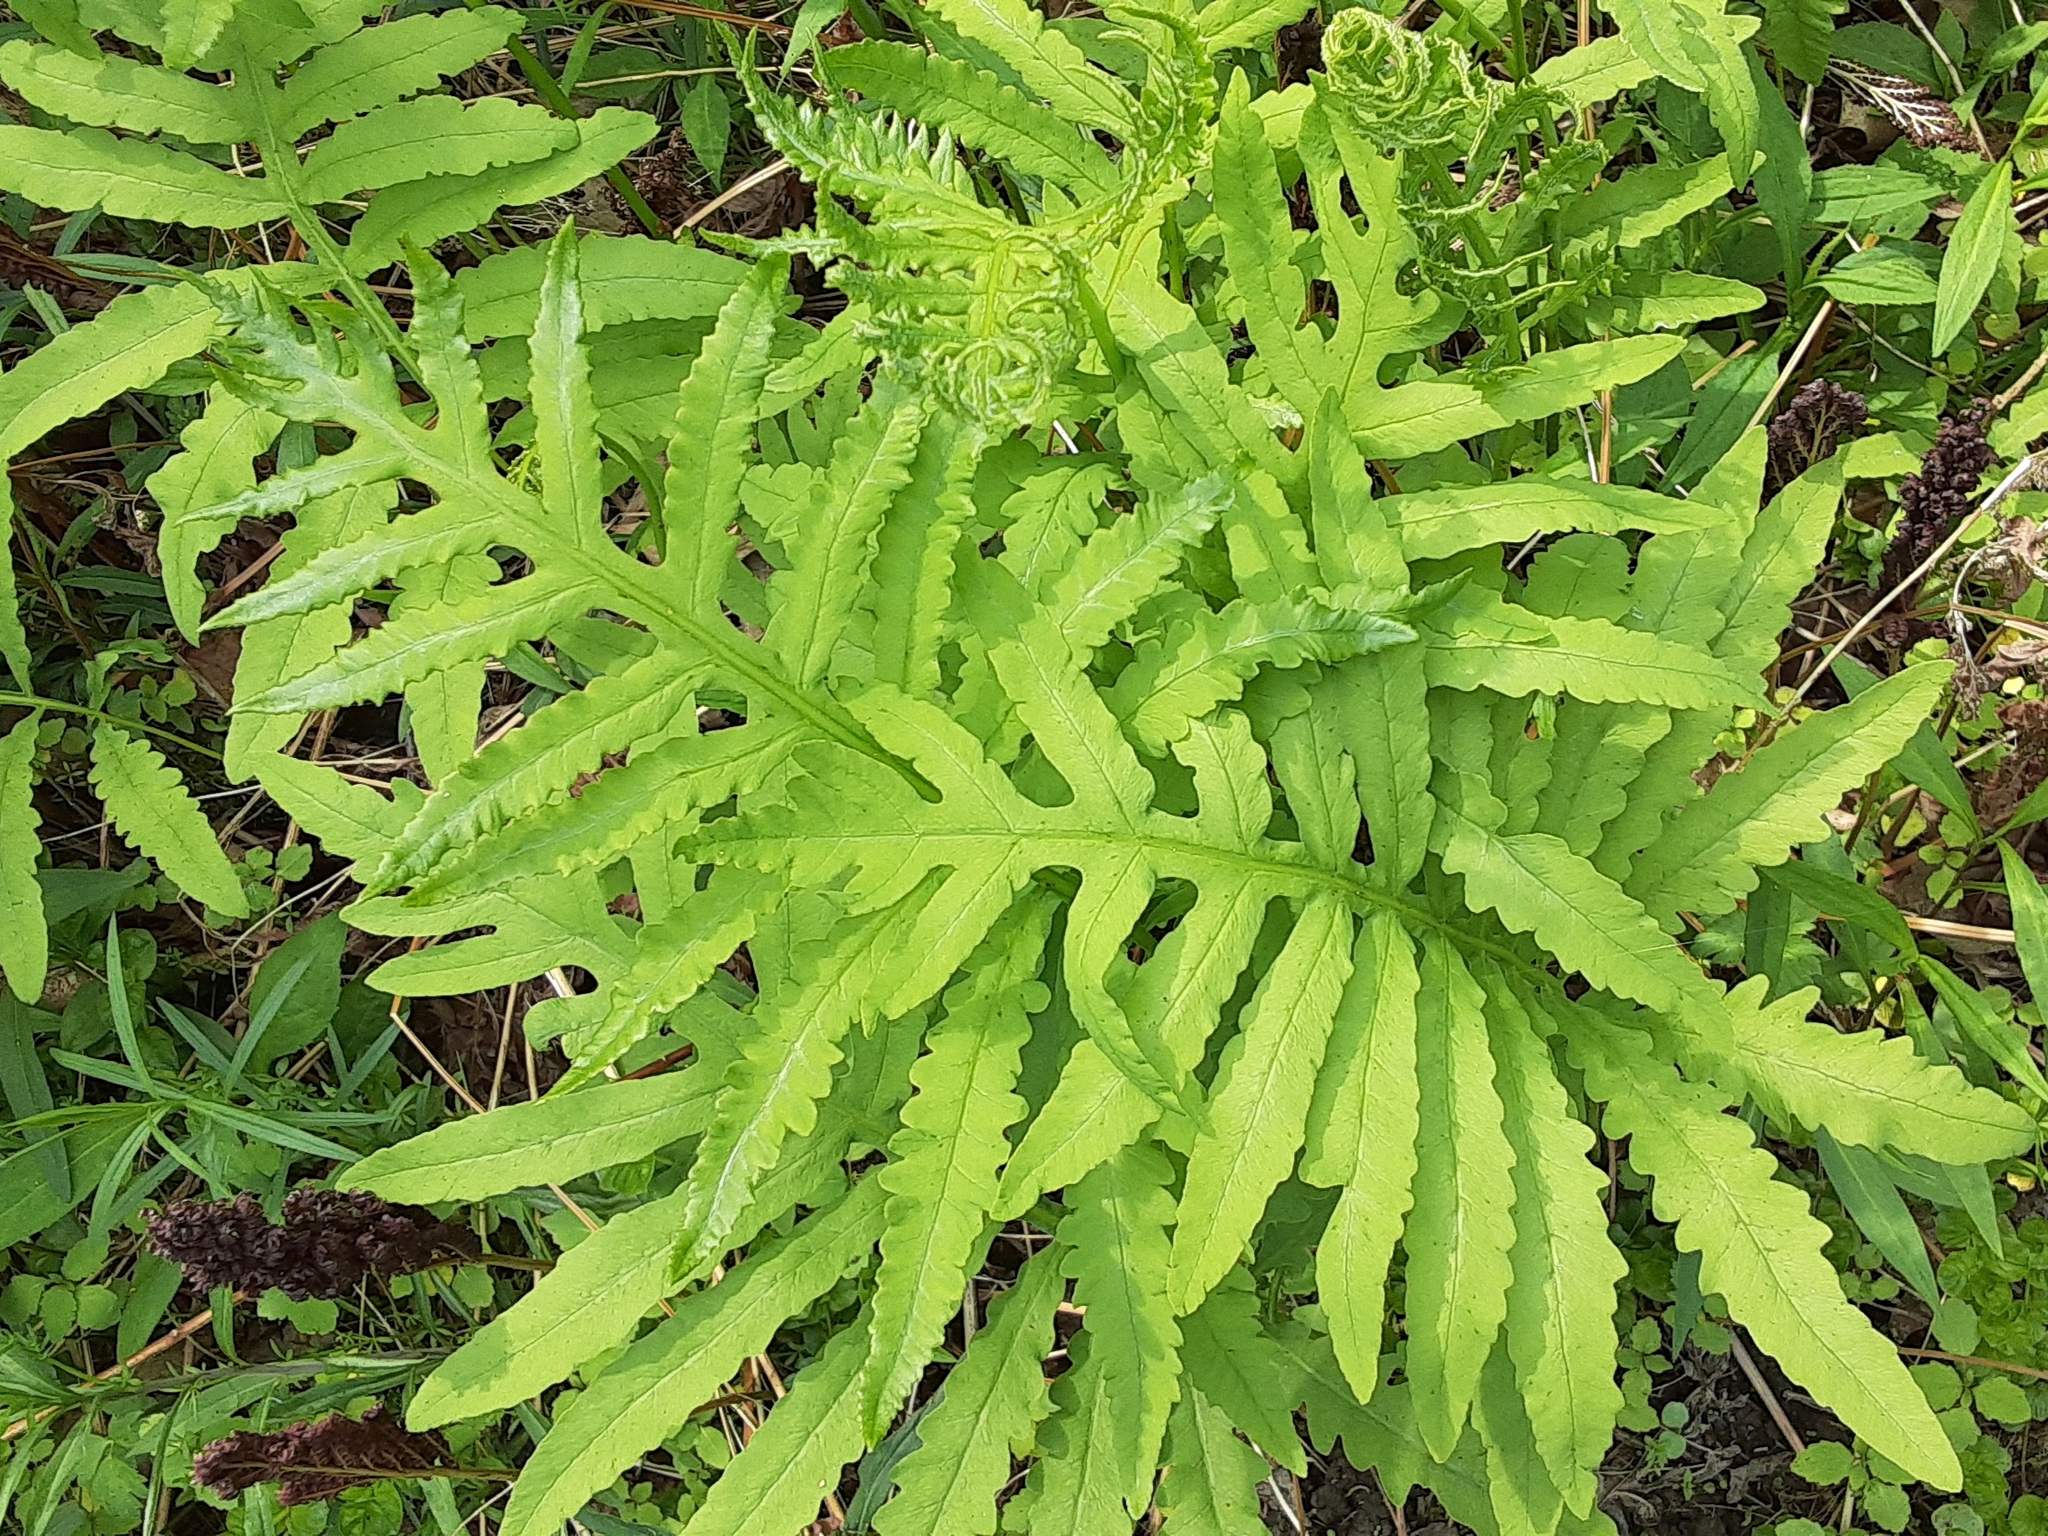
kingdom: Plantae
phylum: Tracheophyta
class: Polypodiopsida
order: Polypodiales
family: Onocleaceae
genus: Onoclea
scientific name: Onoclea sensibilis
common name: Sensitive fern
